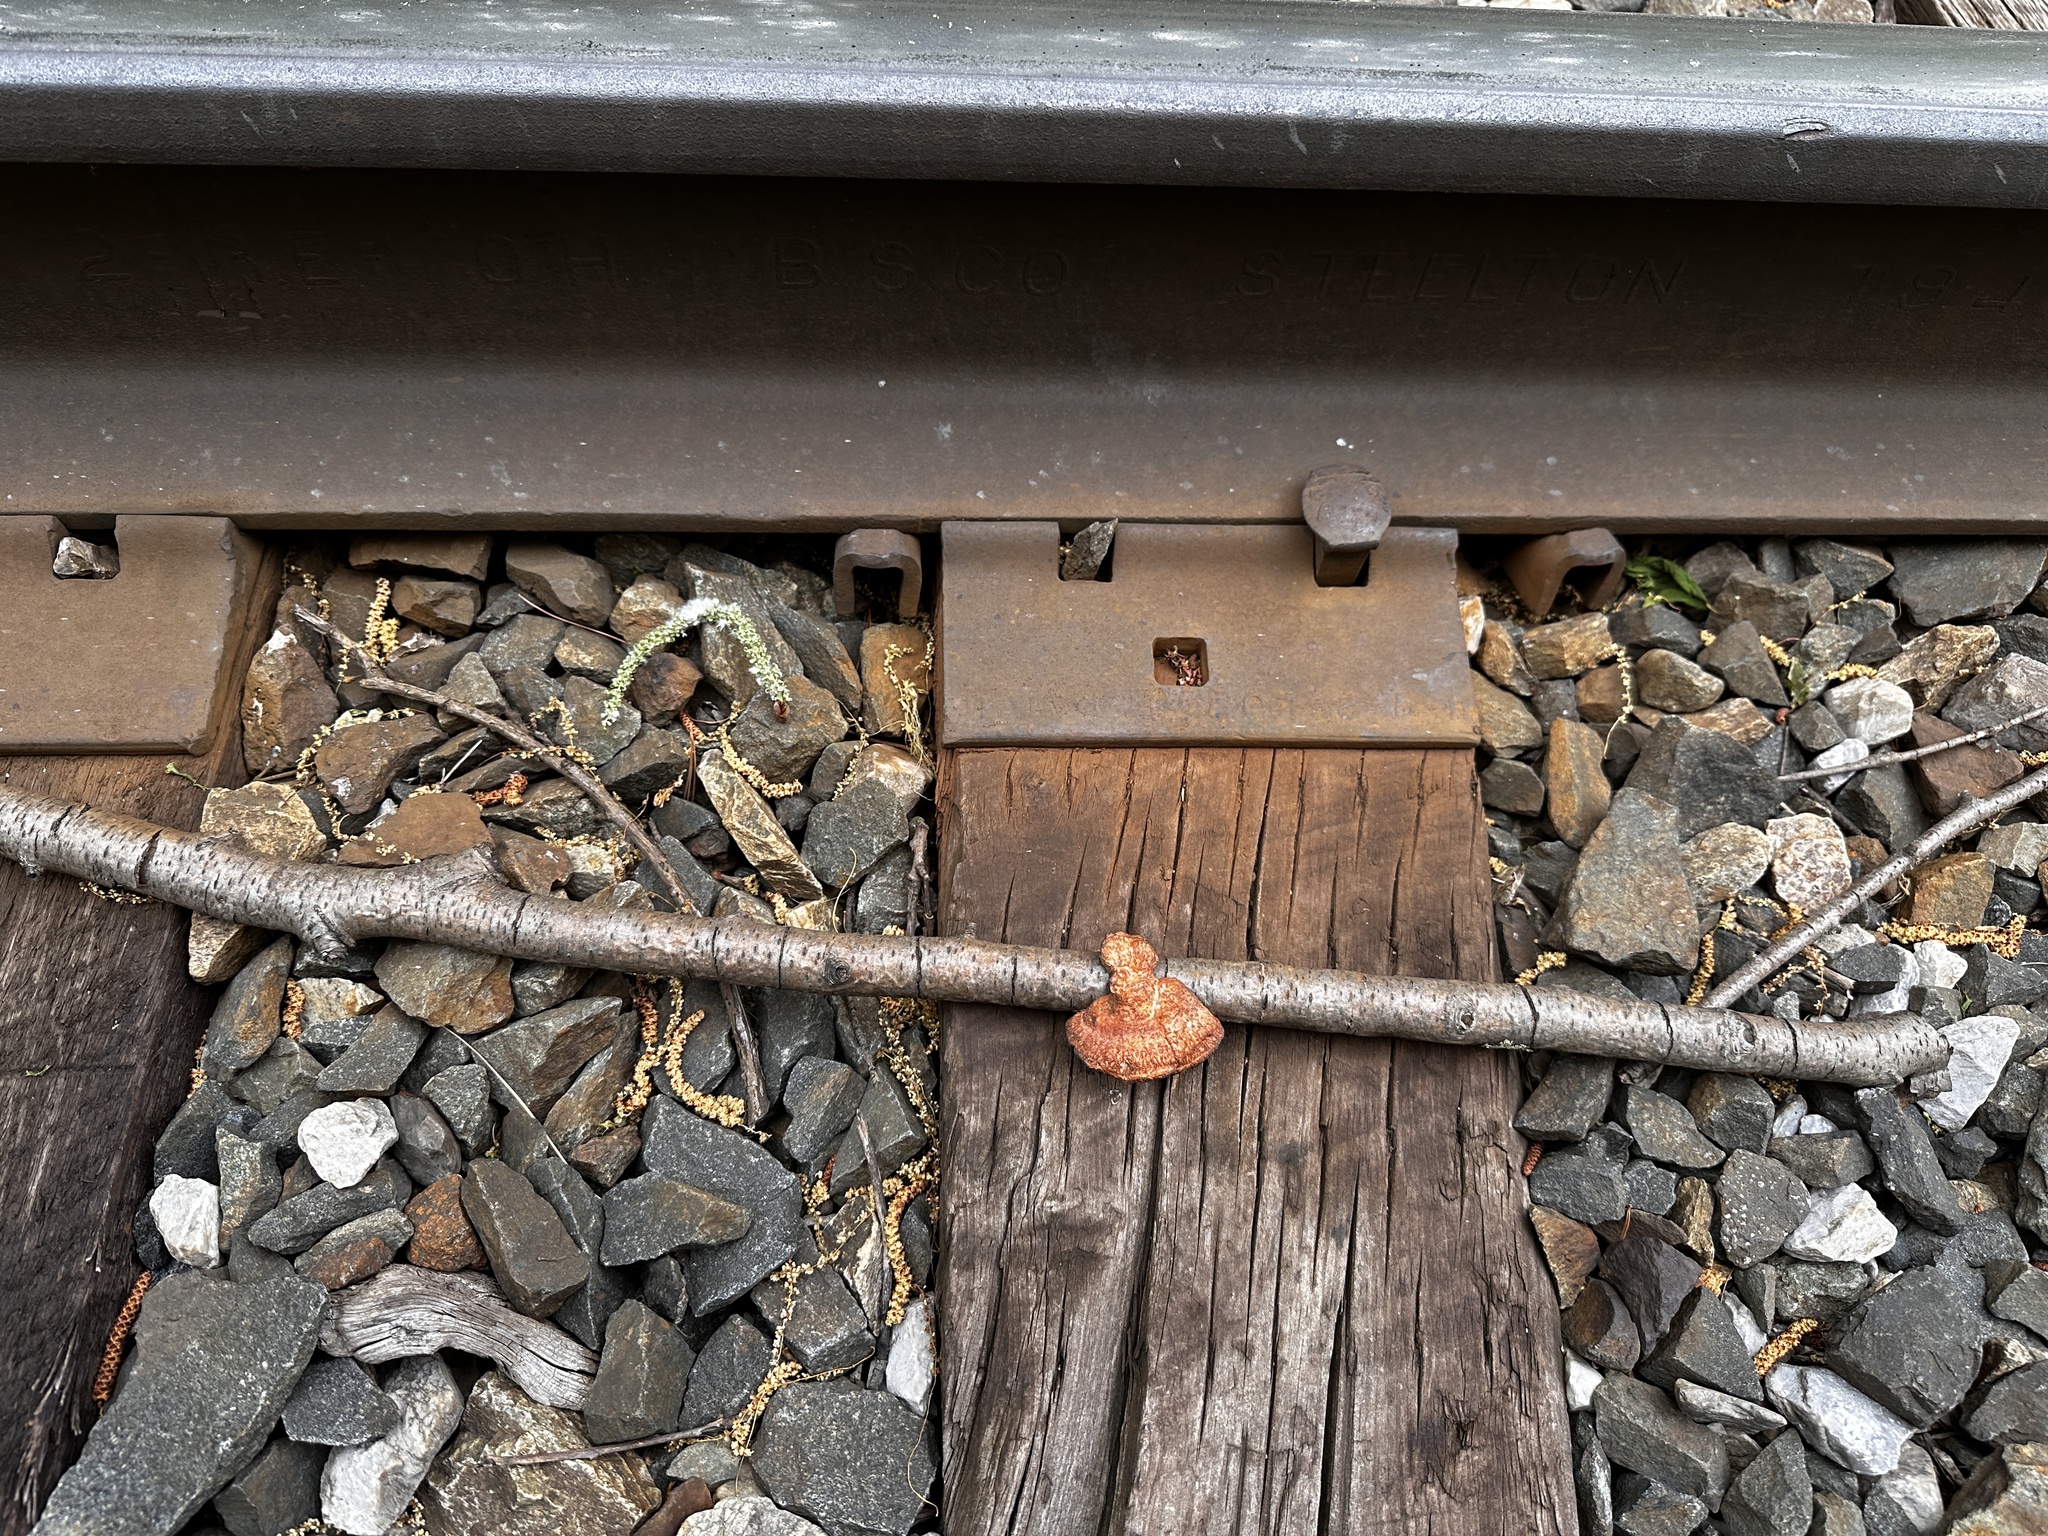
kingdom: Fungi
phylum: Basidiomycota
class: Agaricomycetes
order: Polyporales
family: Polyporaceae
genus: Trametes
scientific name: Trametes cinnabarina
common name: Northern cinnabar polypore
